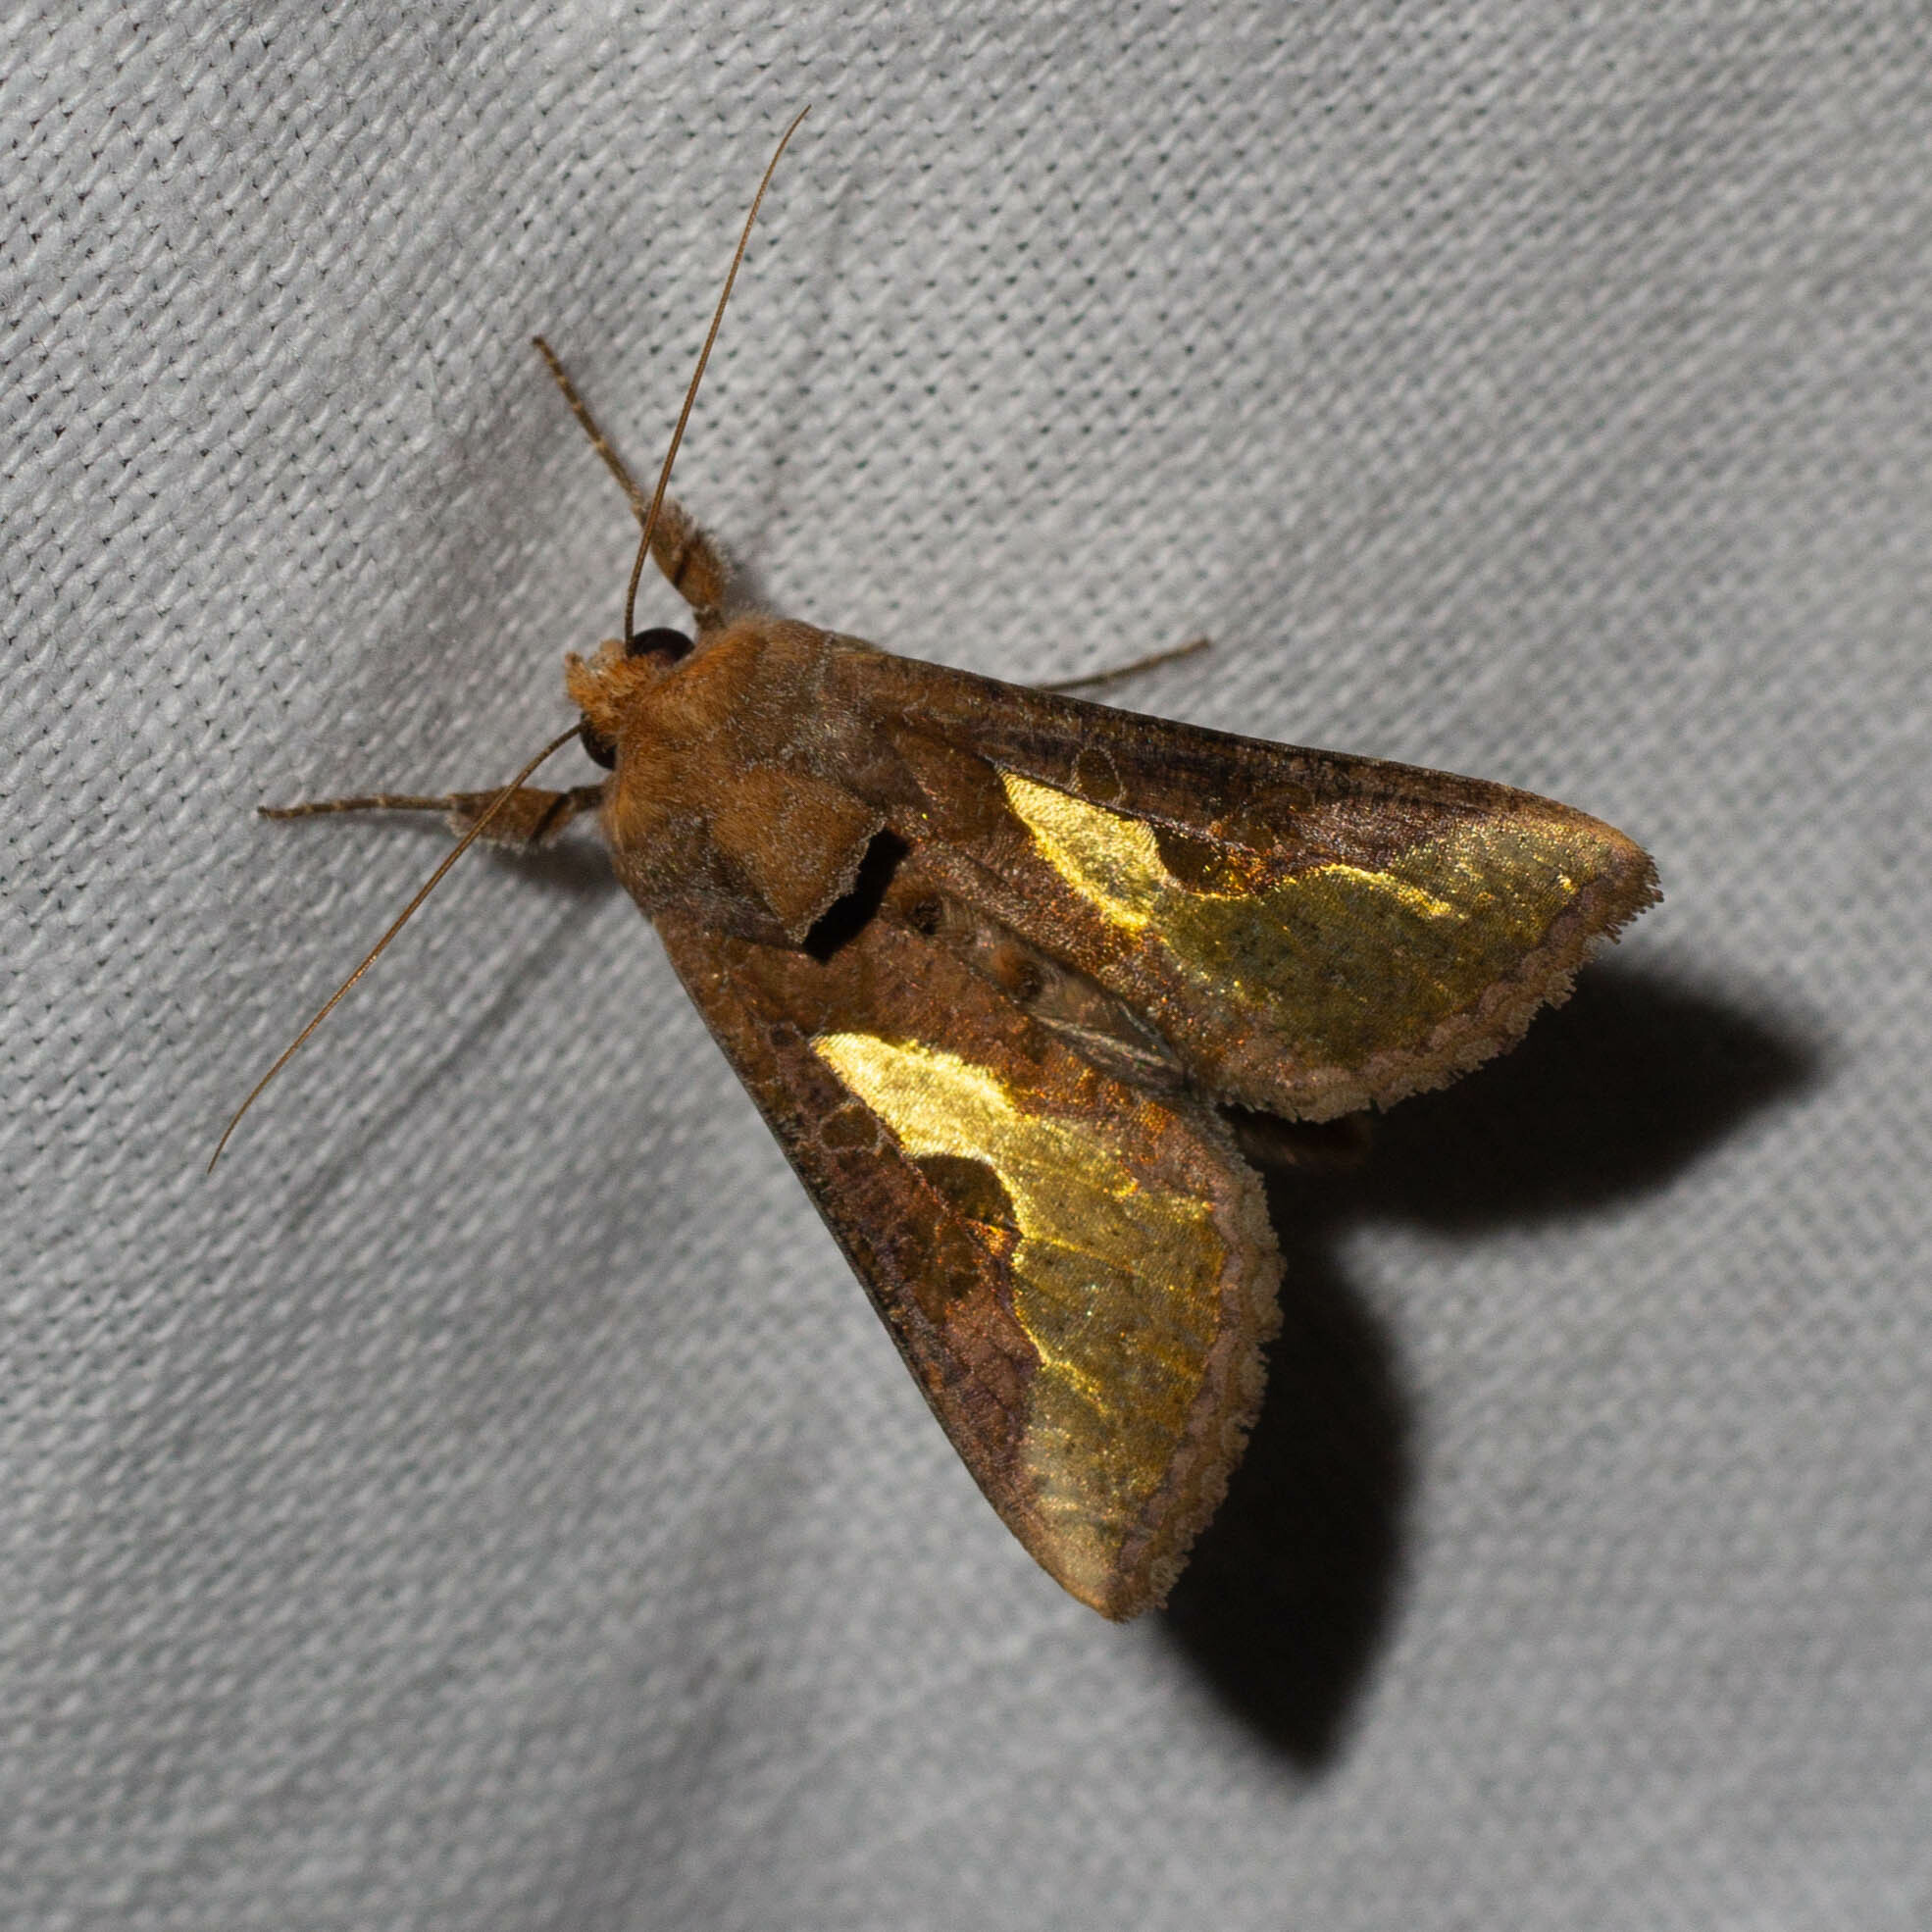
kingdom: Animalia
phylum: Arthropoda
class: Insecta
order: Lepidoptera
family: Noctuidae
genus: Thysanoplusia
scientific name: Thysanoplusia orichalcea
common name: Slender burnished brass, golden plusia
